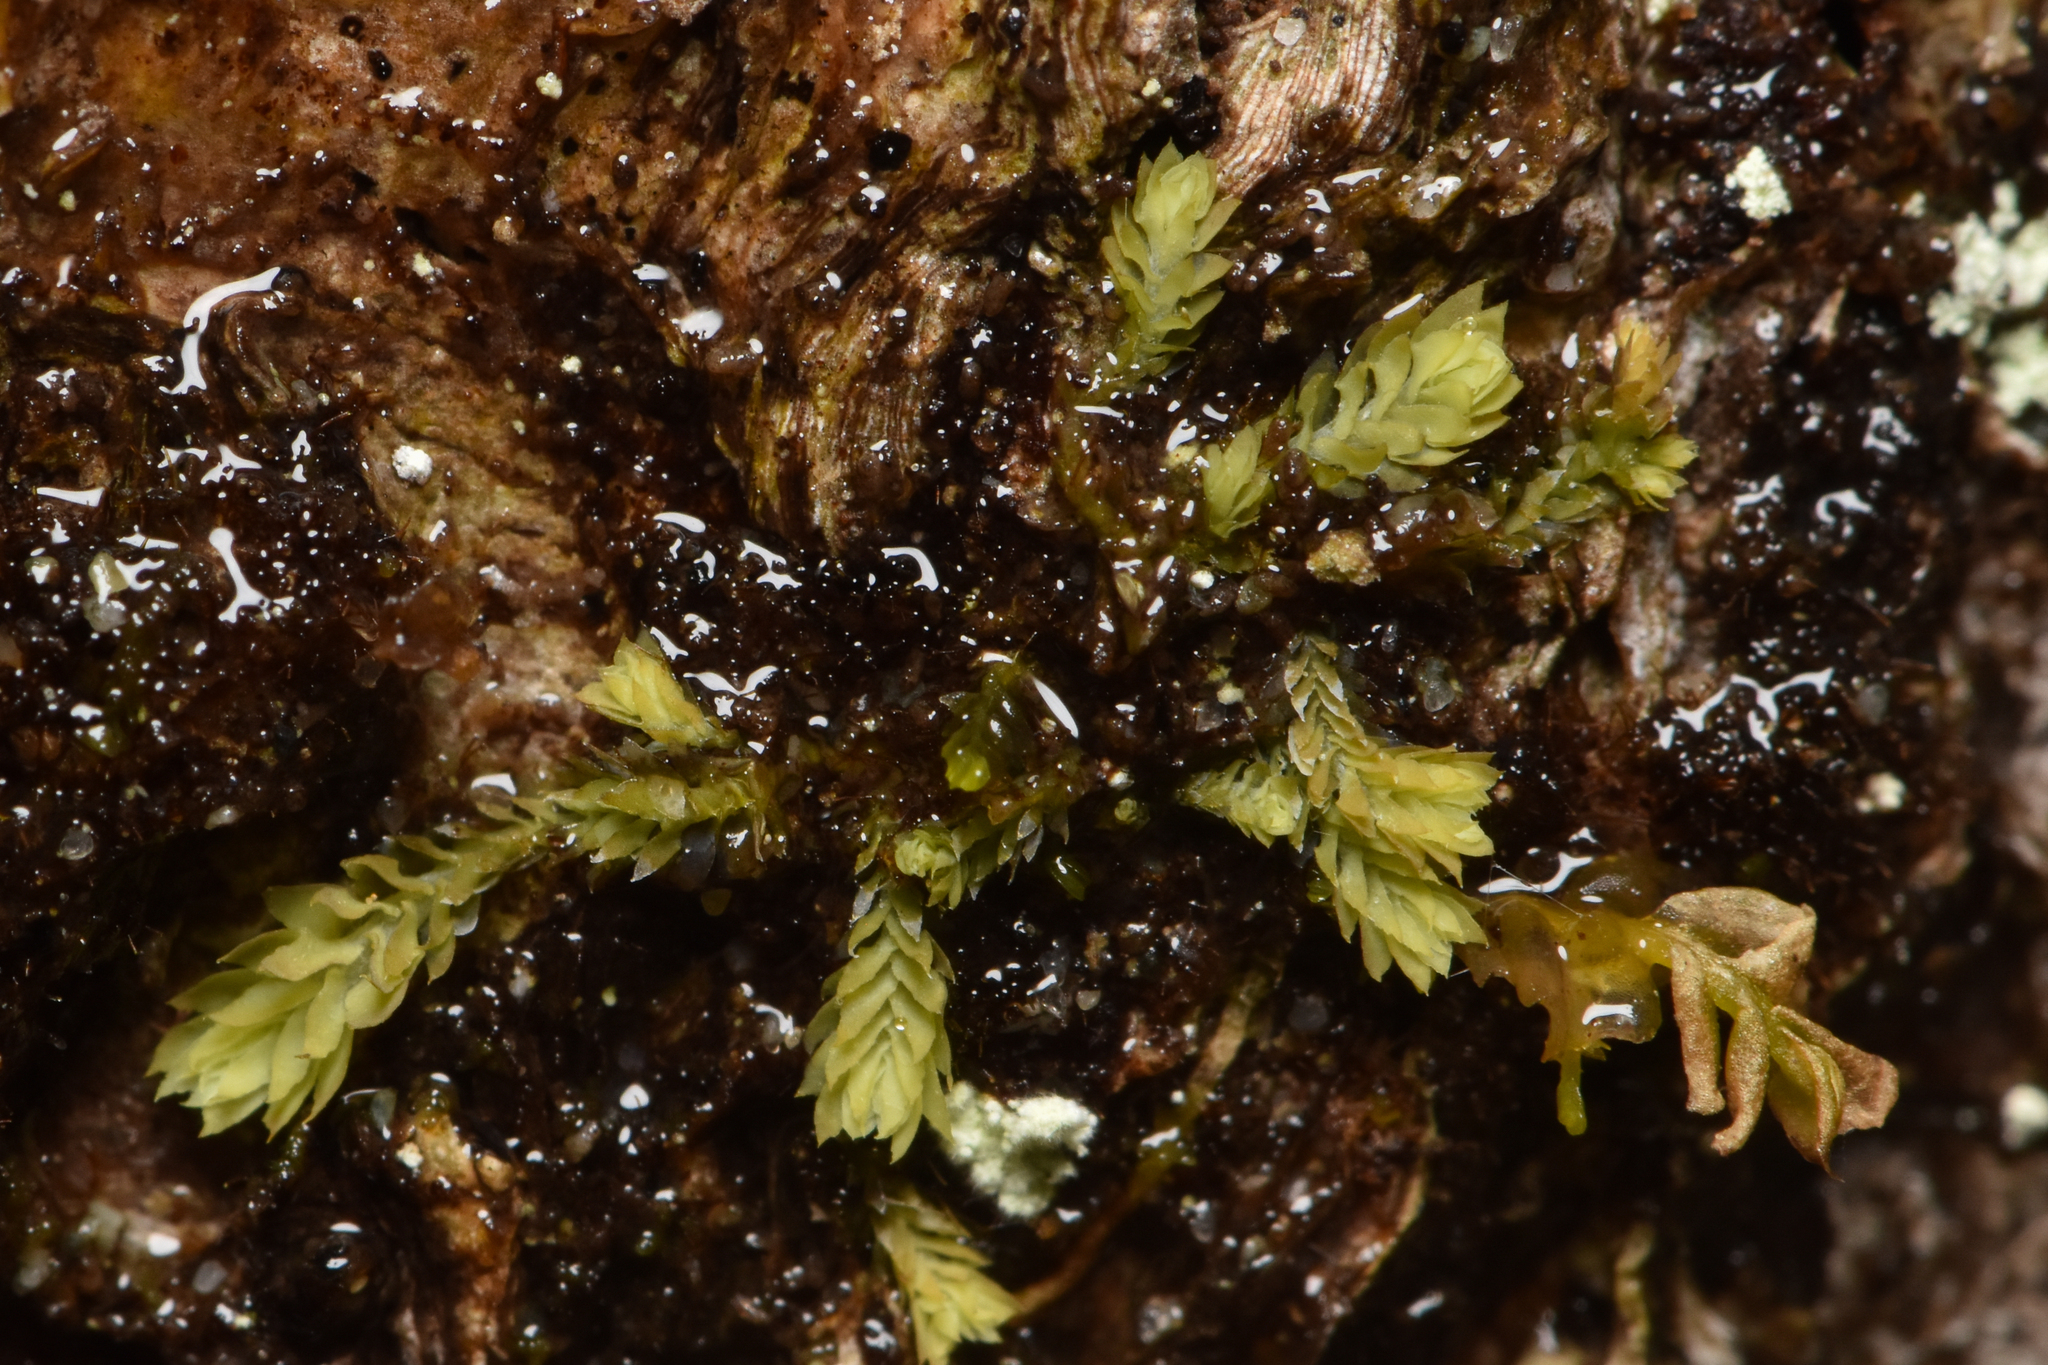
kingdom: Plantae
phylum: Marchantiophyta
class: Jungermanniopsida
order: Jungermanniales
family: Scapaniaceae
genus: Douinia
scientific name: Douinia ovata
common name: Waxy earwort
